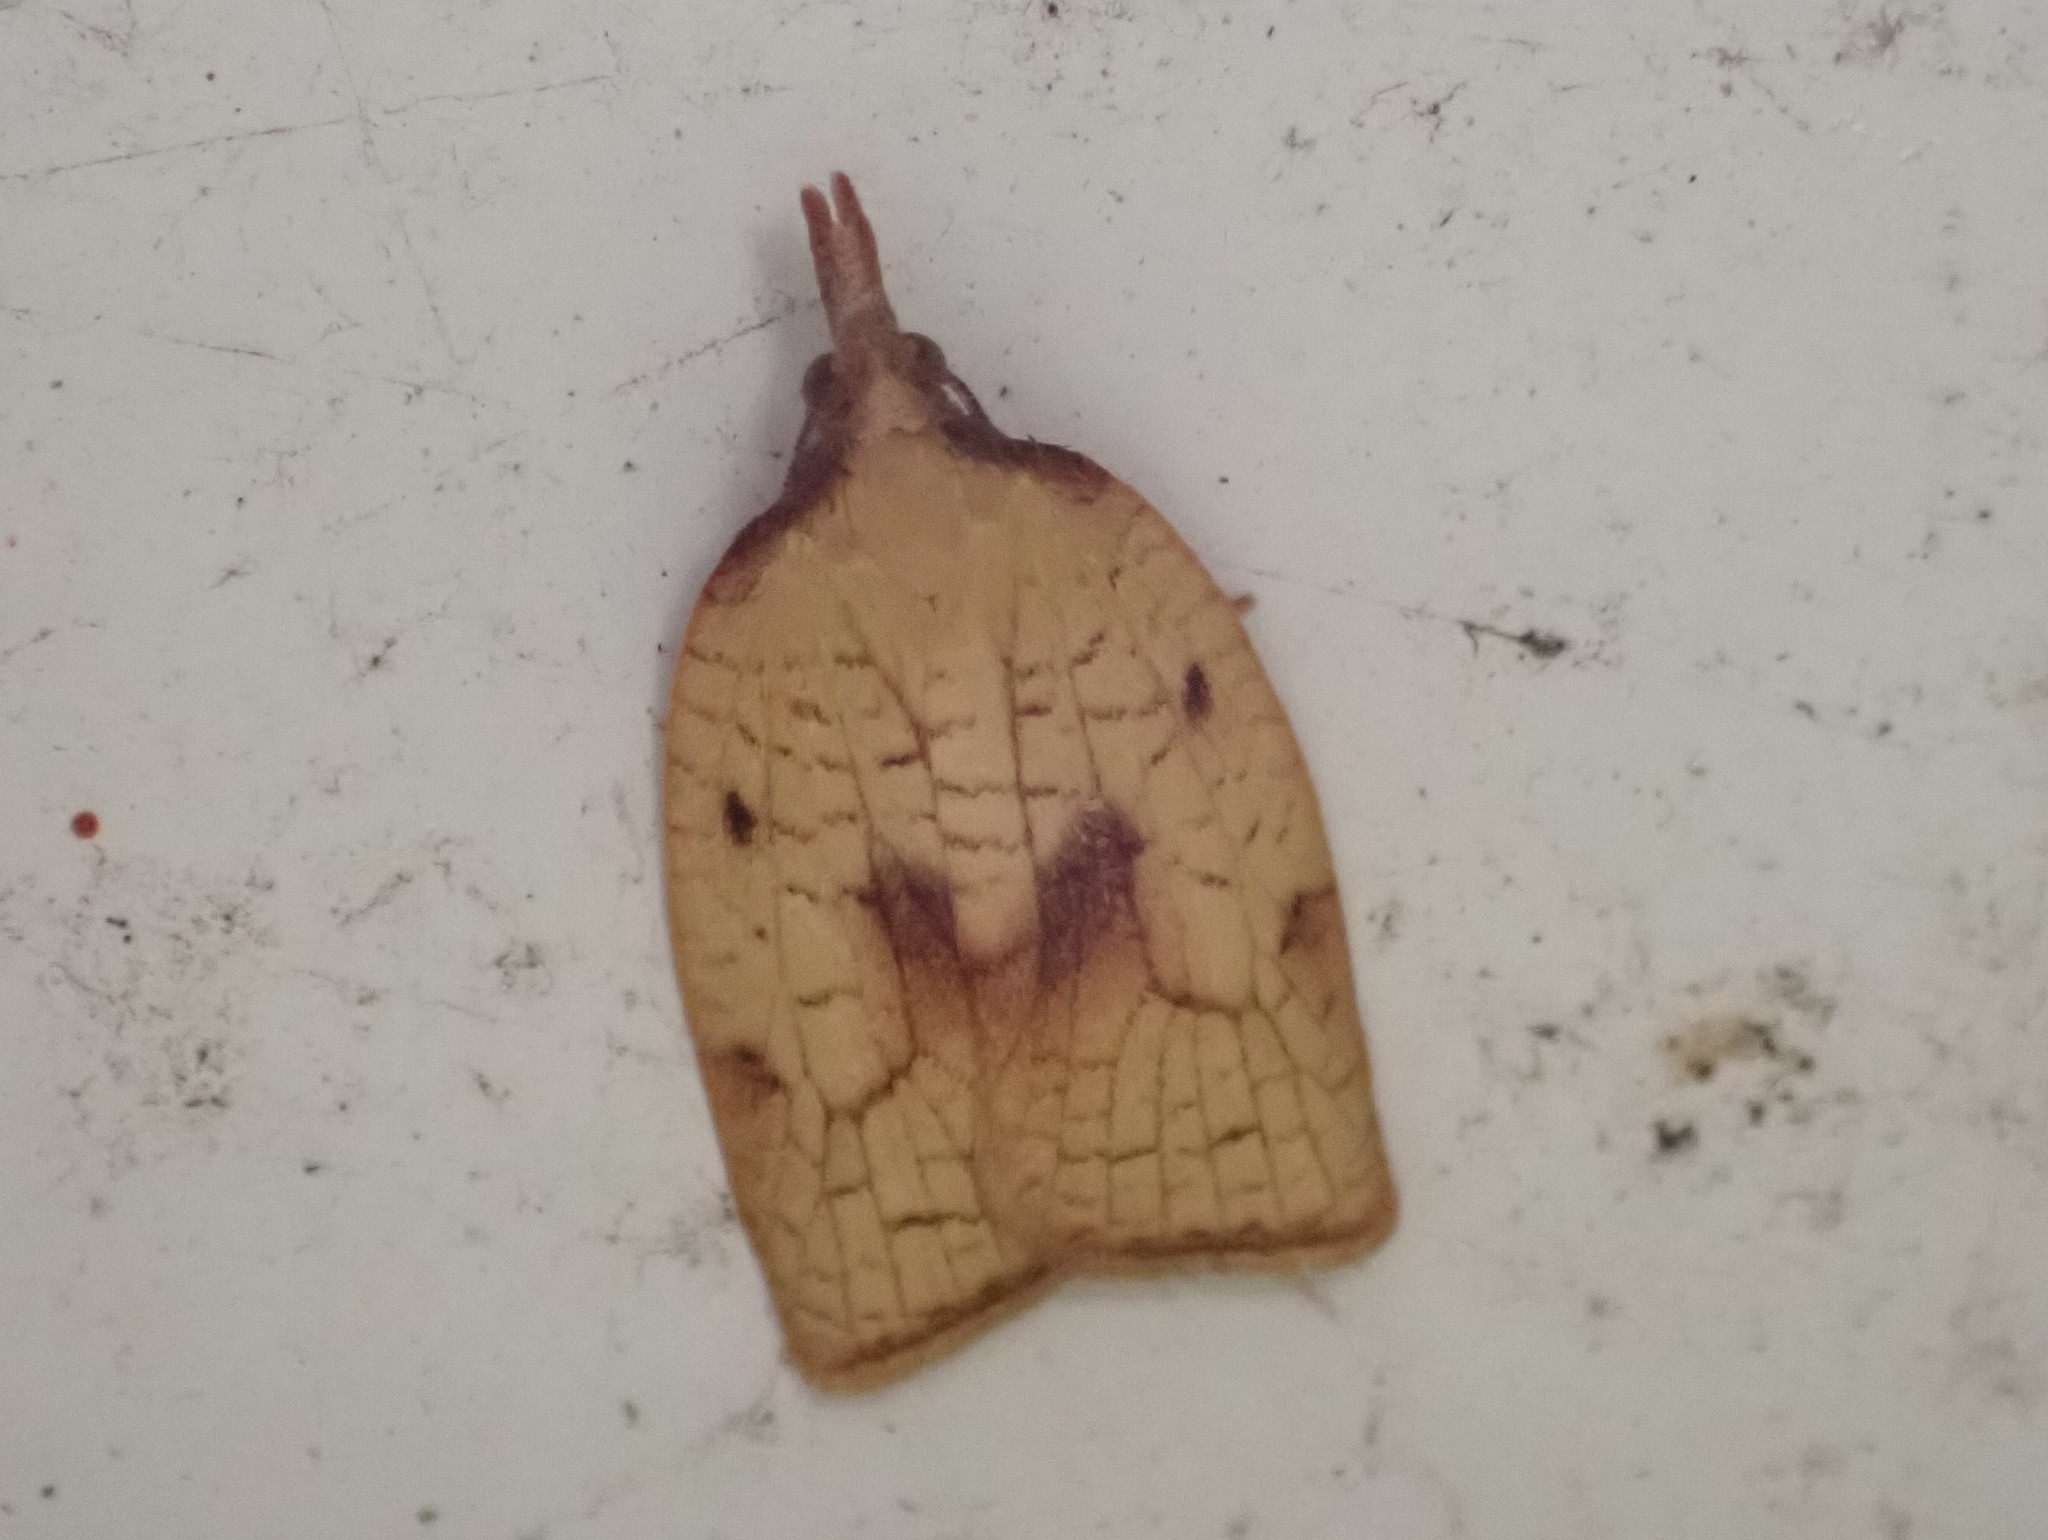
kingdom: Animalia
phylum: Arthropoda
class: Insecta
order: Lepidoptera
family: Tortricidae
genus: Sparganothis
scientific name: Sparganothis xanthoides
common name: Mosaic sparganothis moth
